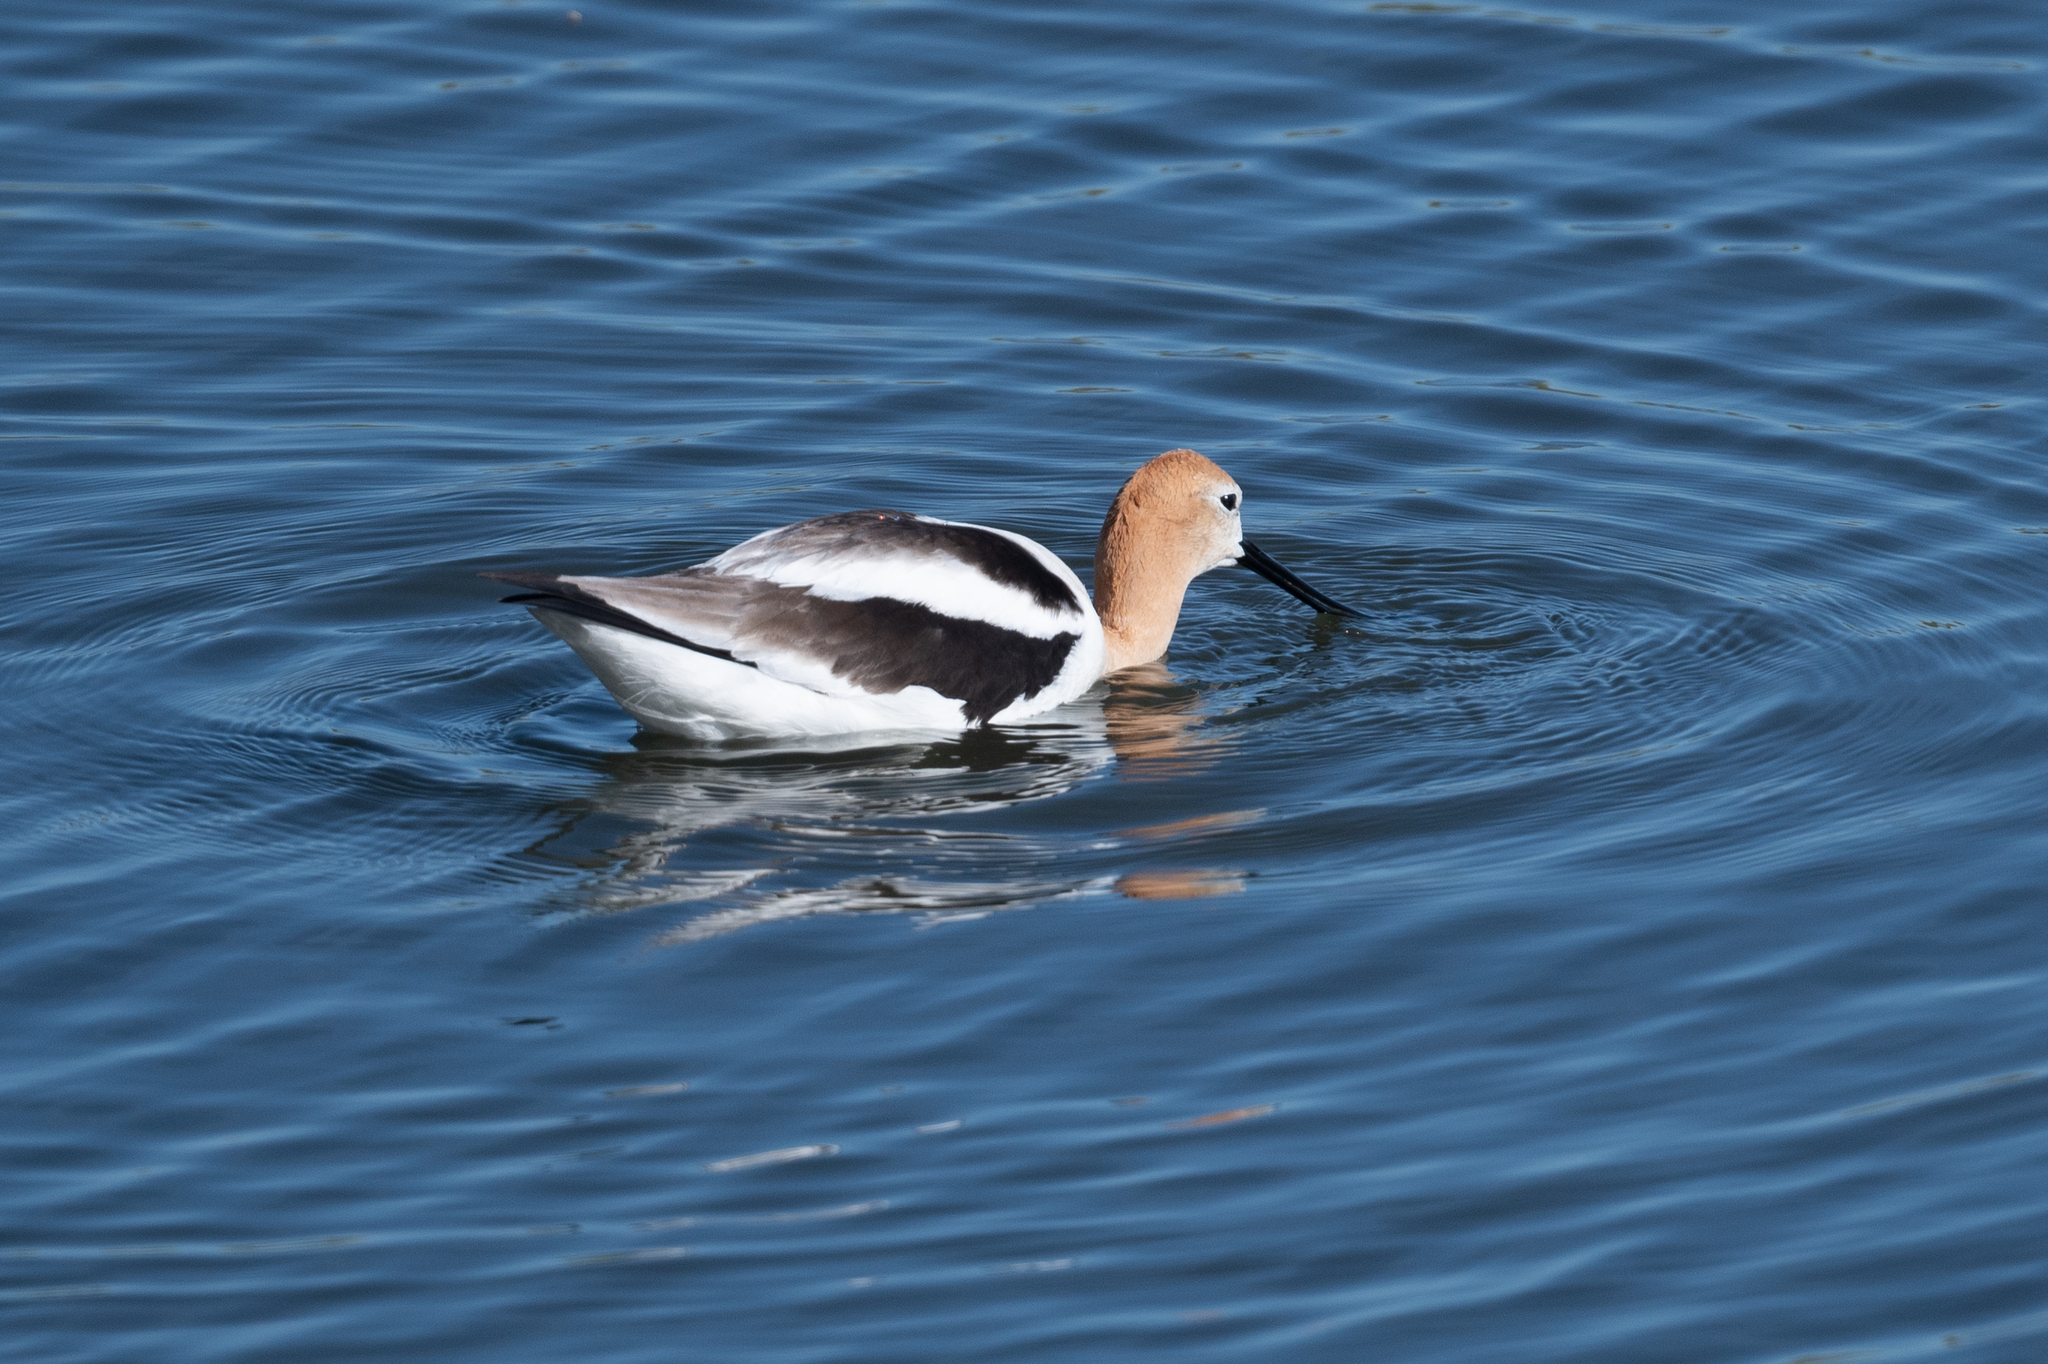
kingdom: Animalia
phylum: Chordata
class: Aves
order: Charadriiformes
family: Recurvirostridae
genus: Recurvirostra
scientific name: Recurvirostra americana
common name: American avocet
